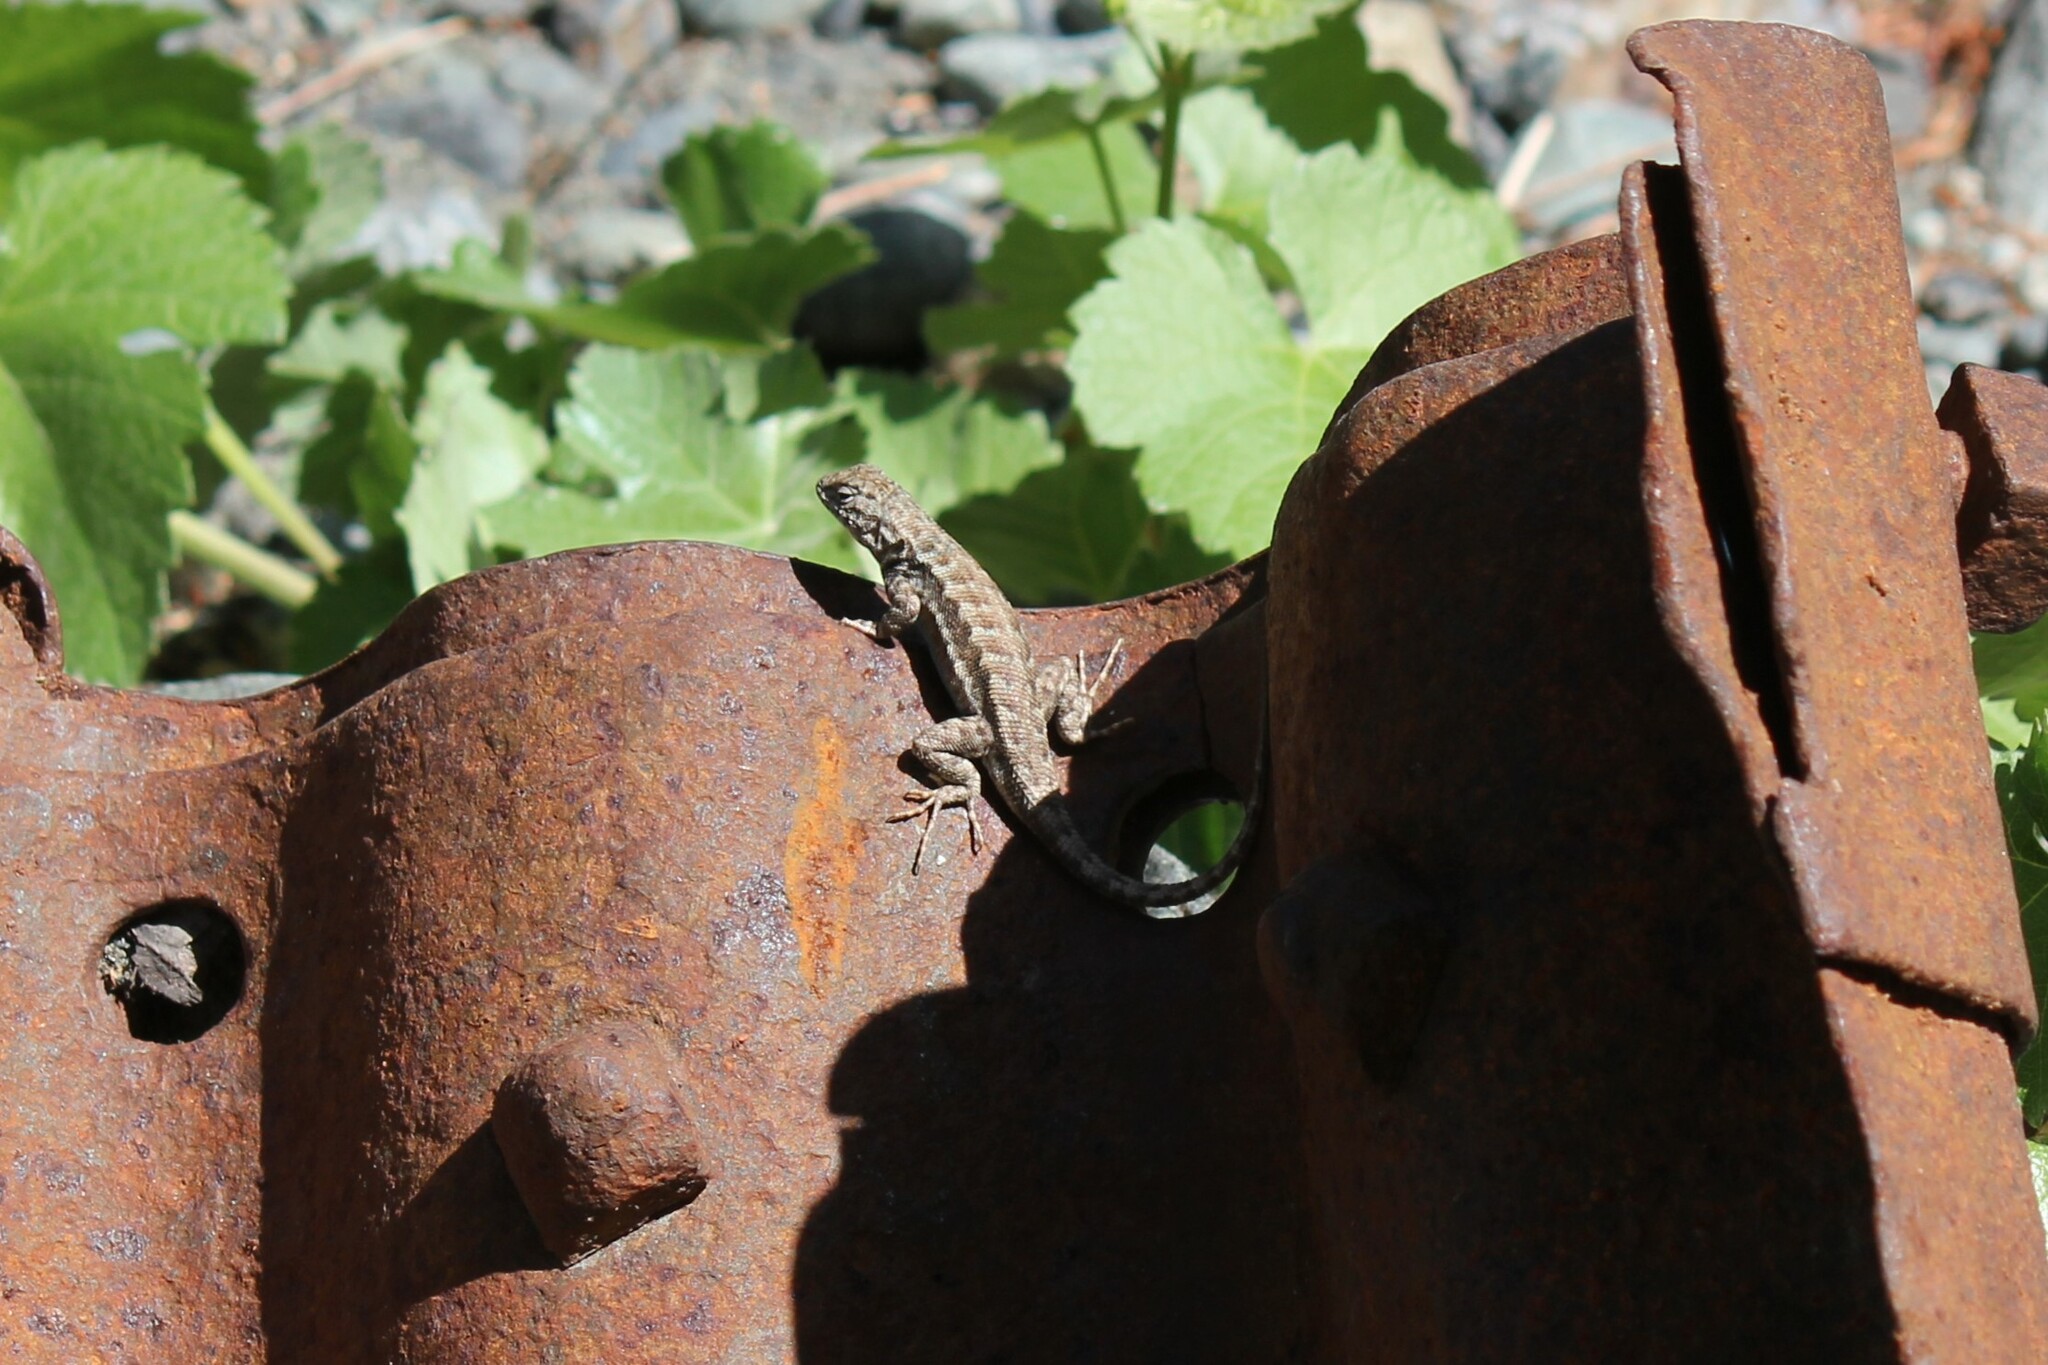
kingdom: Animalia
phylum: Chordata
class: Squamata
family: Phrynosomatidae
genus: Sceloporus
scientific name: Sceloporus graciosus
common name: Sagebrush lizard
